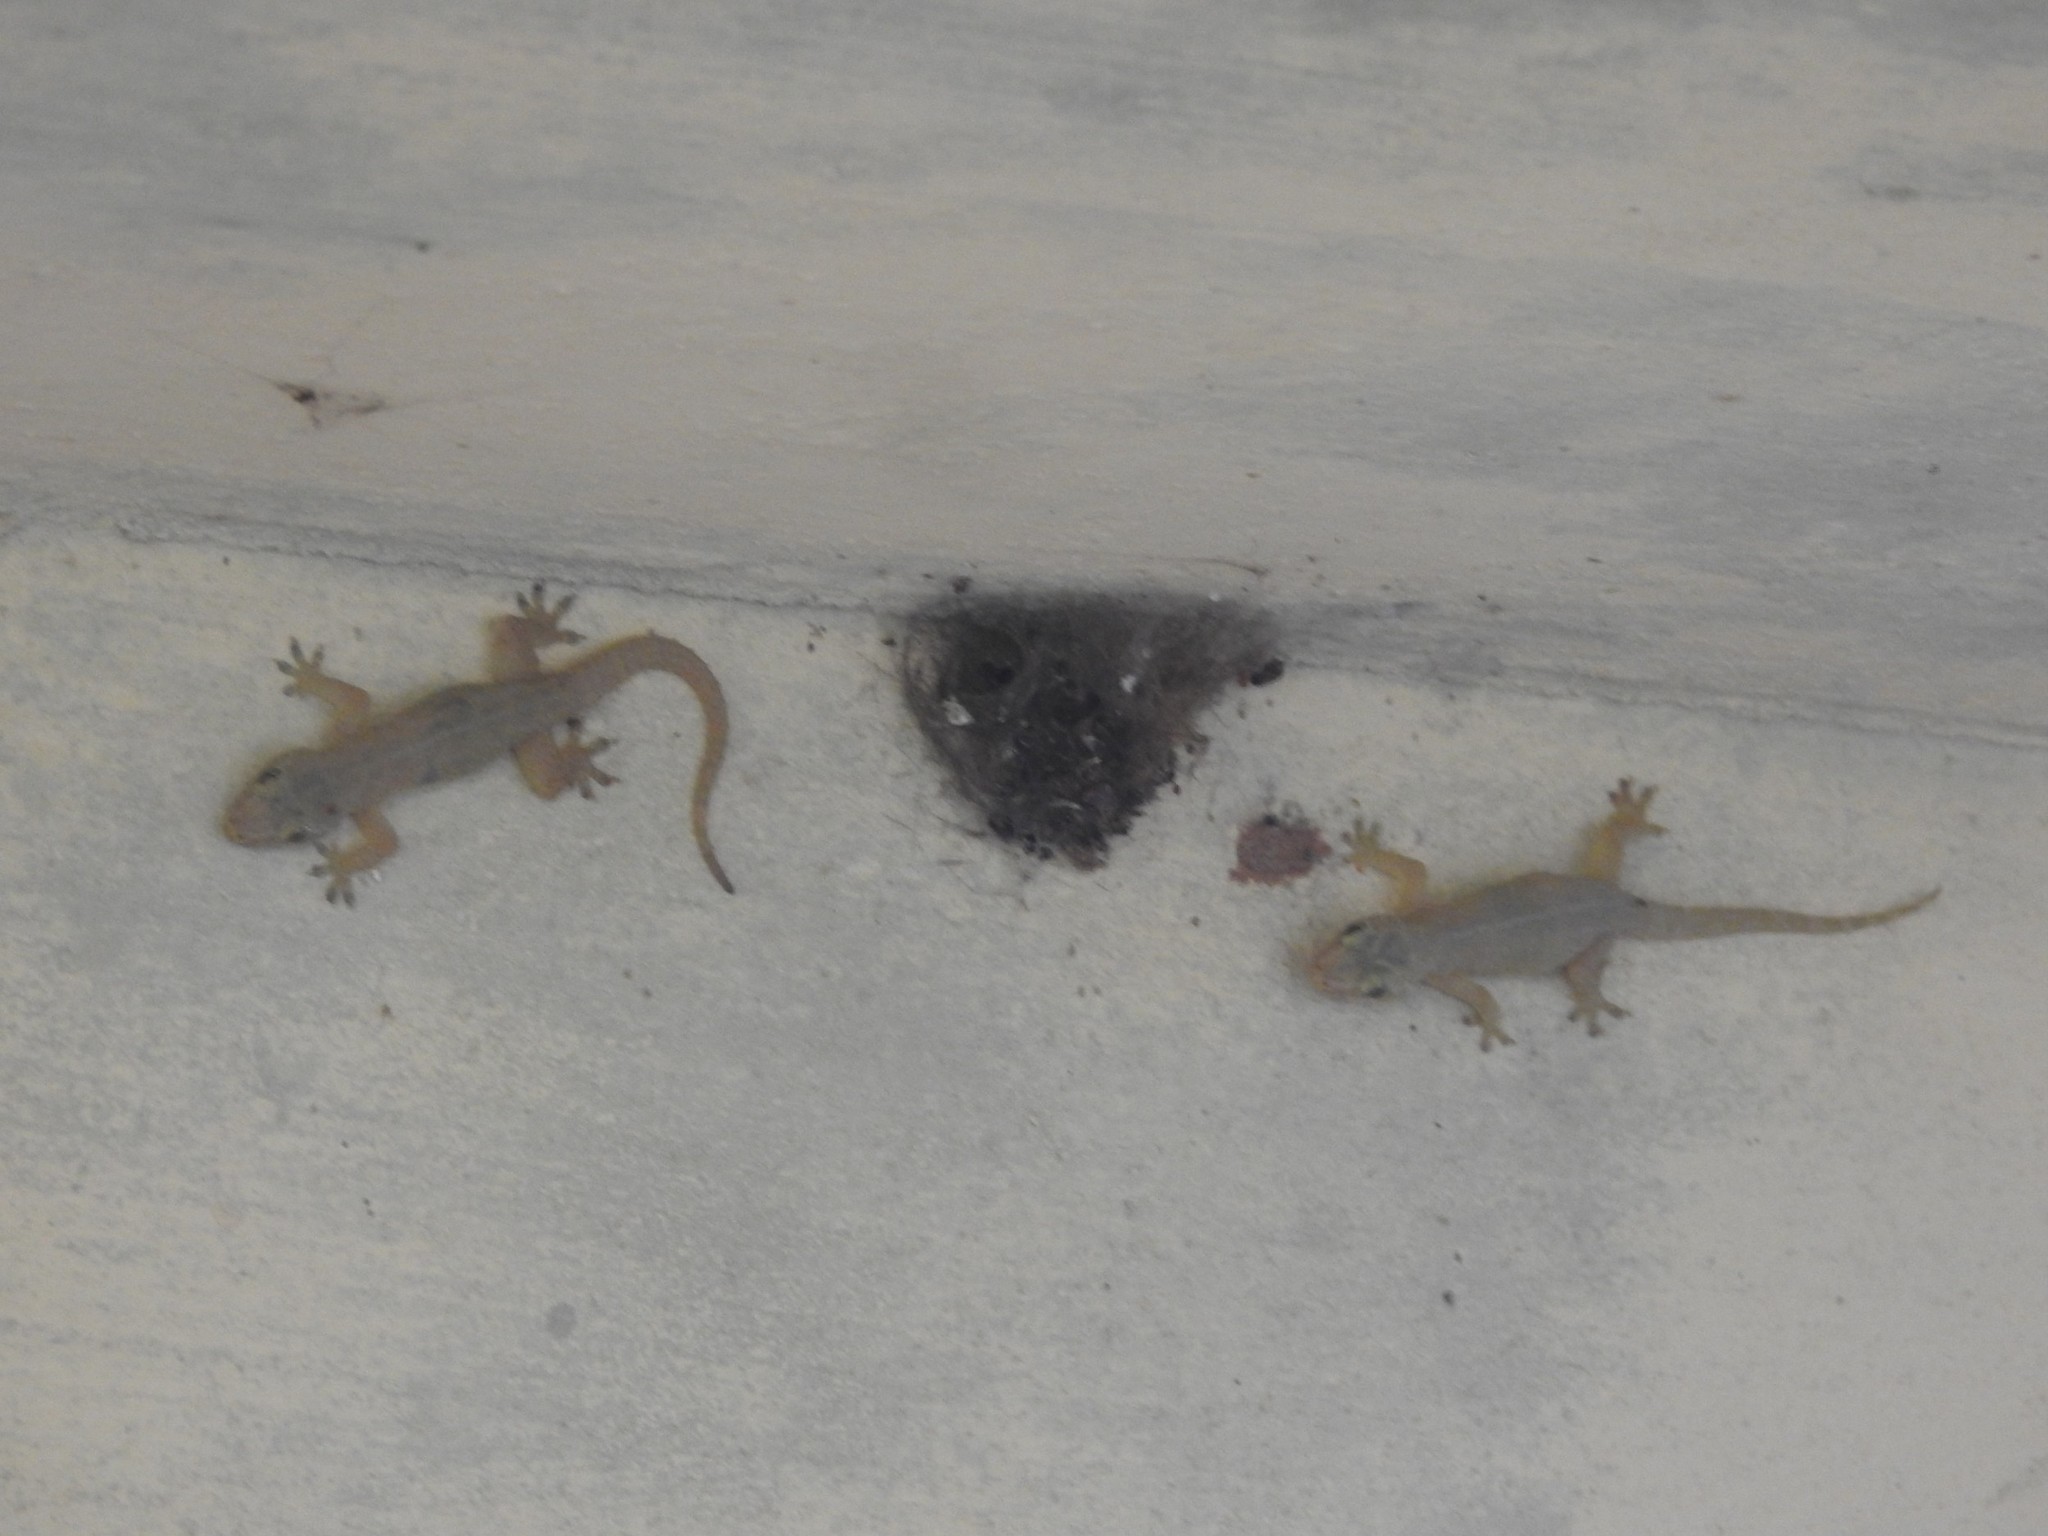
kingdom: Animalia
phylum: Chordata
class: Squamata
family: Gekkonidae
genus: Hemidactylus
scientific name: Hemidactylus frenatus
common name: Common house gecko
